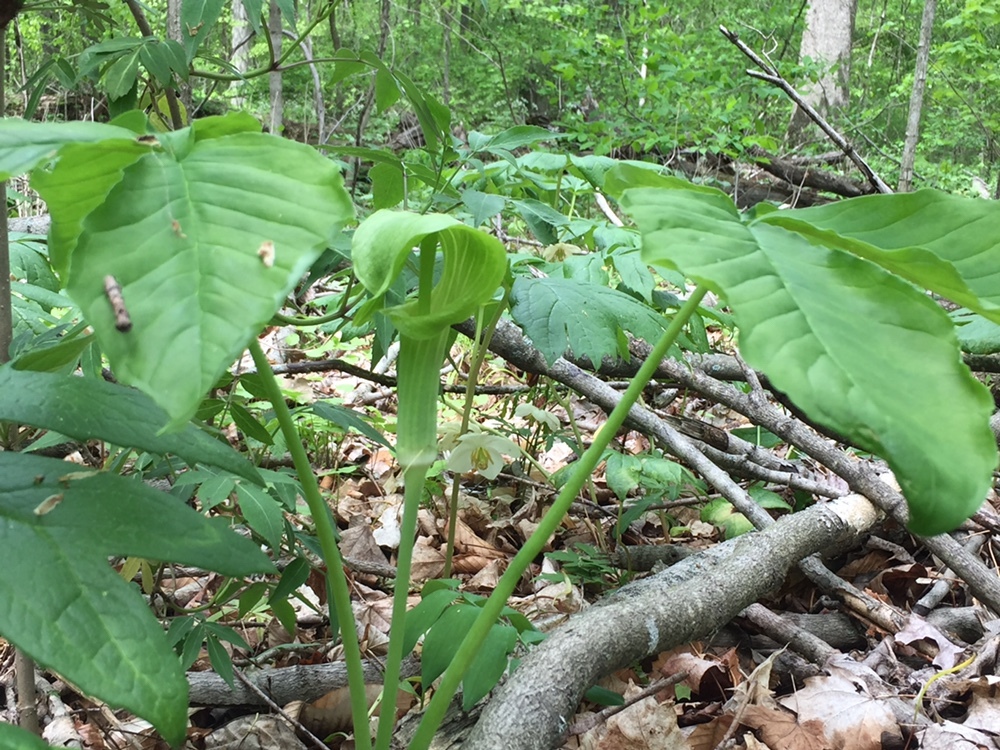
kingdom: Plantae
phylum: Tracheophyta
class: Liliopsida
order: Alismatales
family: Araceae
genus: Arisaema
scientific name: Arisaema triphyllum
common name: Jack-in-the-pulpit
